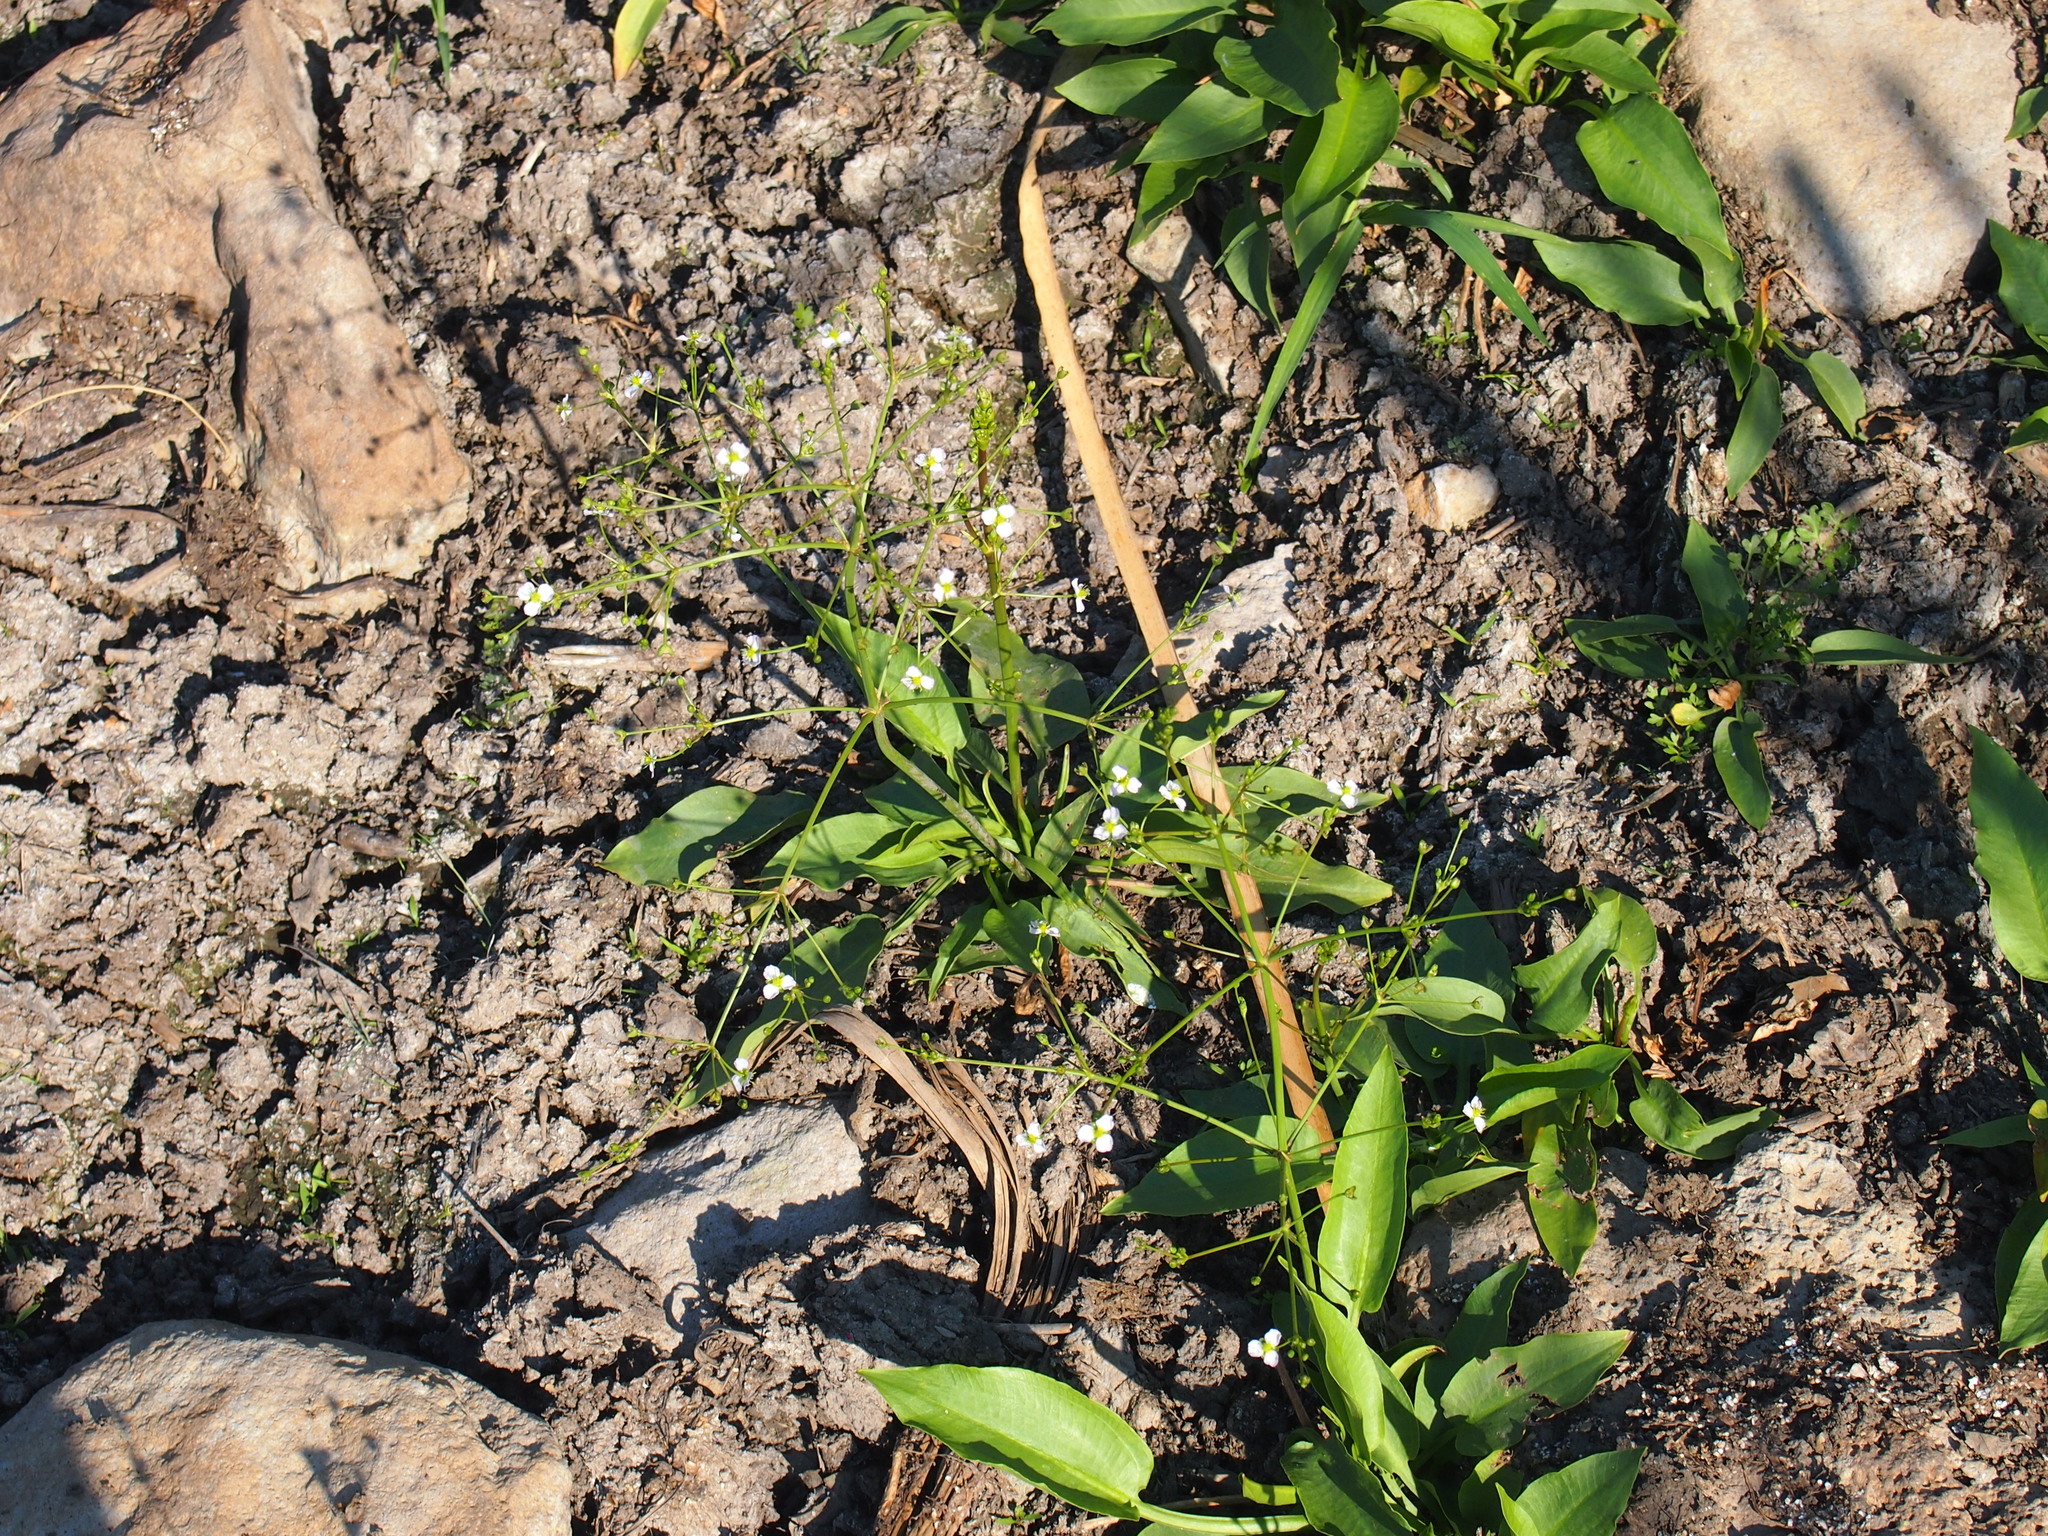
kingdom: Plantae
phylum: Tracheophyta
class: Liliopsida
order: Alismatales
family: Alismataceae
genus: Alisma
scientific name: Alisma plantago-aquatica
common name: Water-plantain
